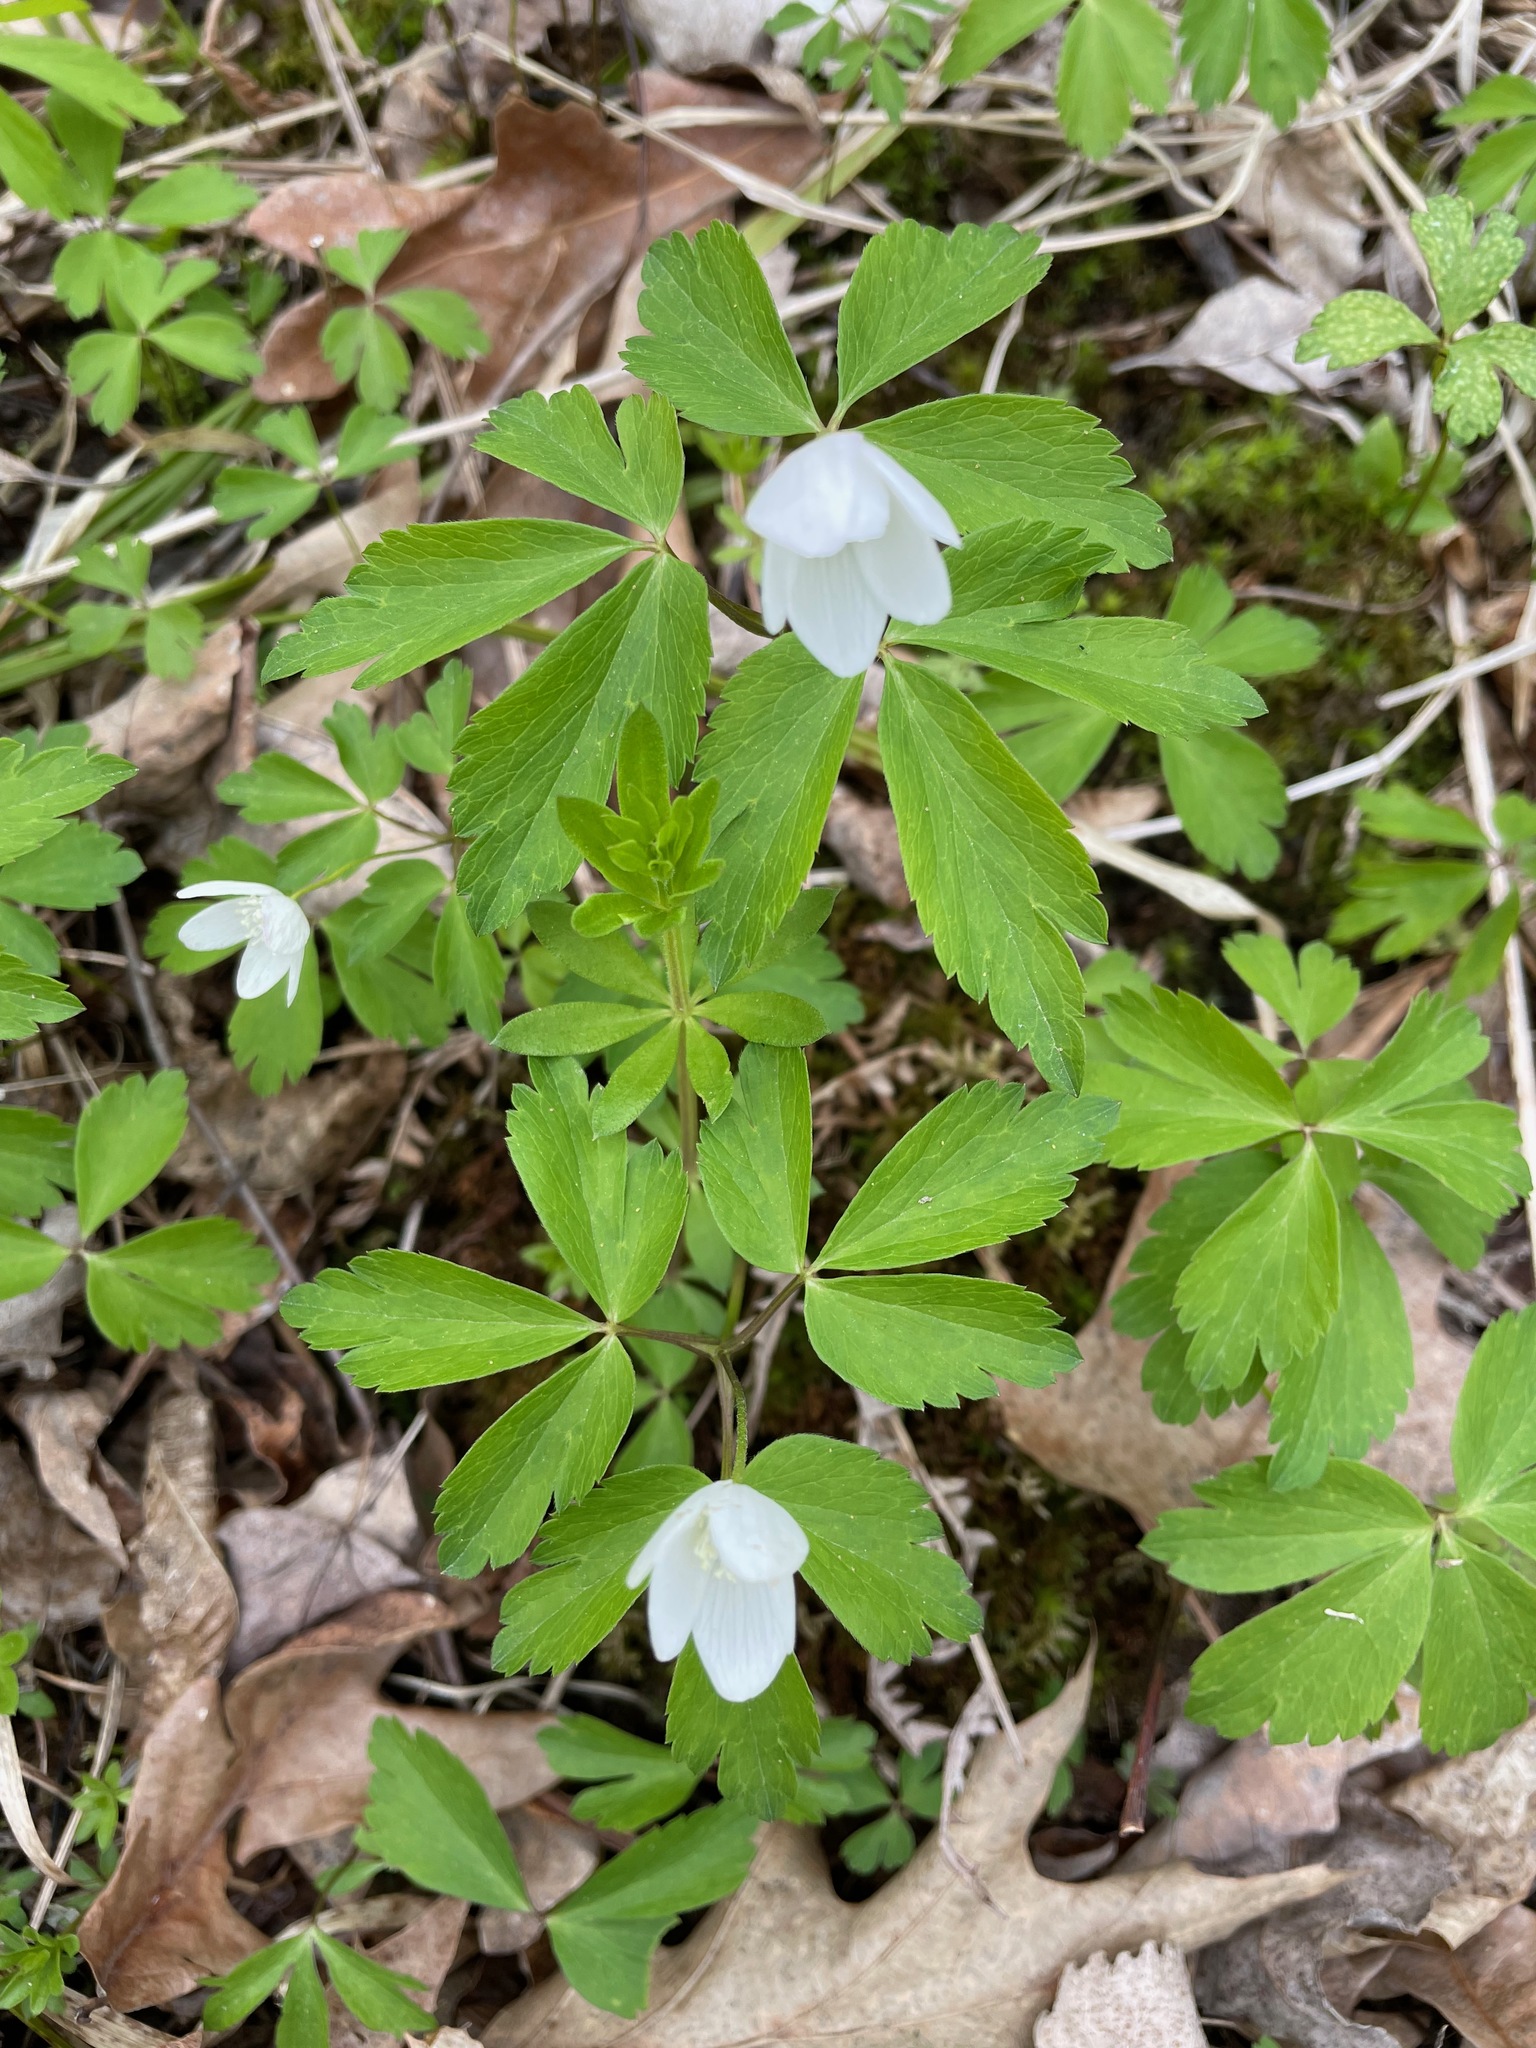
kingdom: Plantae
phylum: Tracheophyta
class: Magnoliopsida
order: Ranunculales
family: Ranunculaceae
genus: Anemone
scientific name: Anemone quinquefolia
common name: Wood anemone
